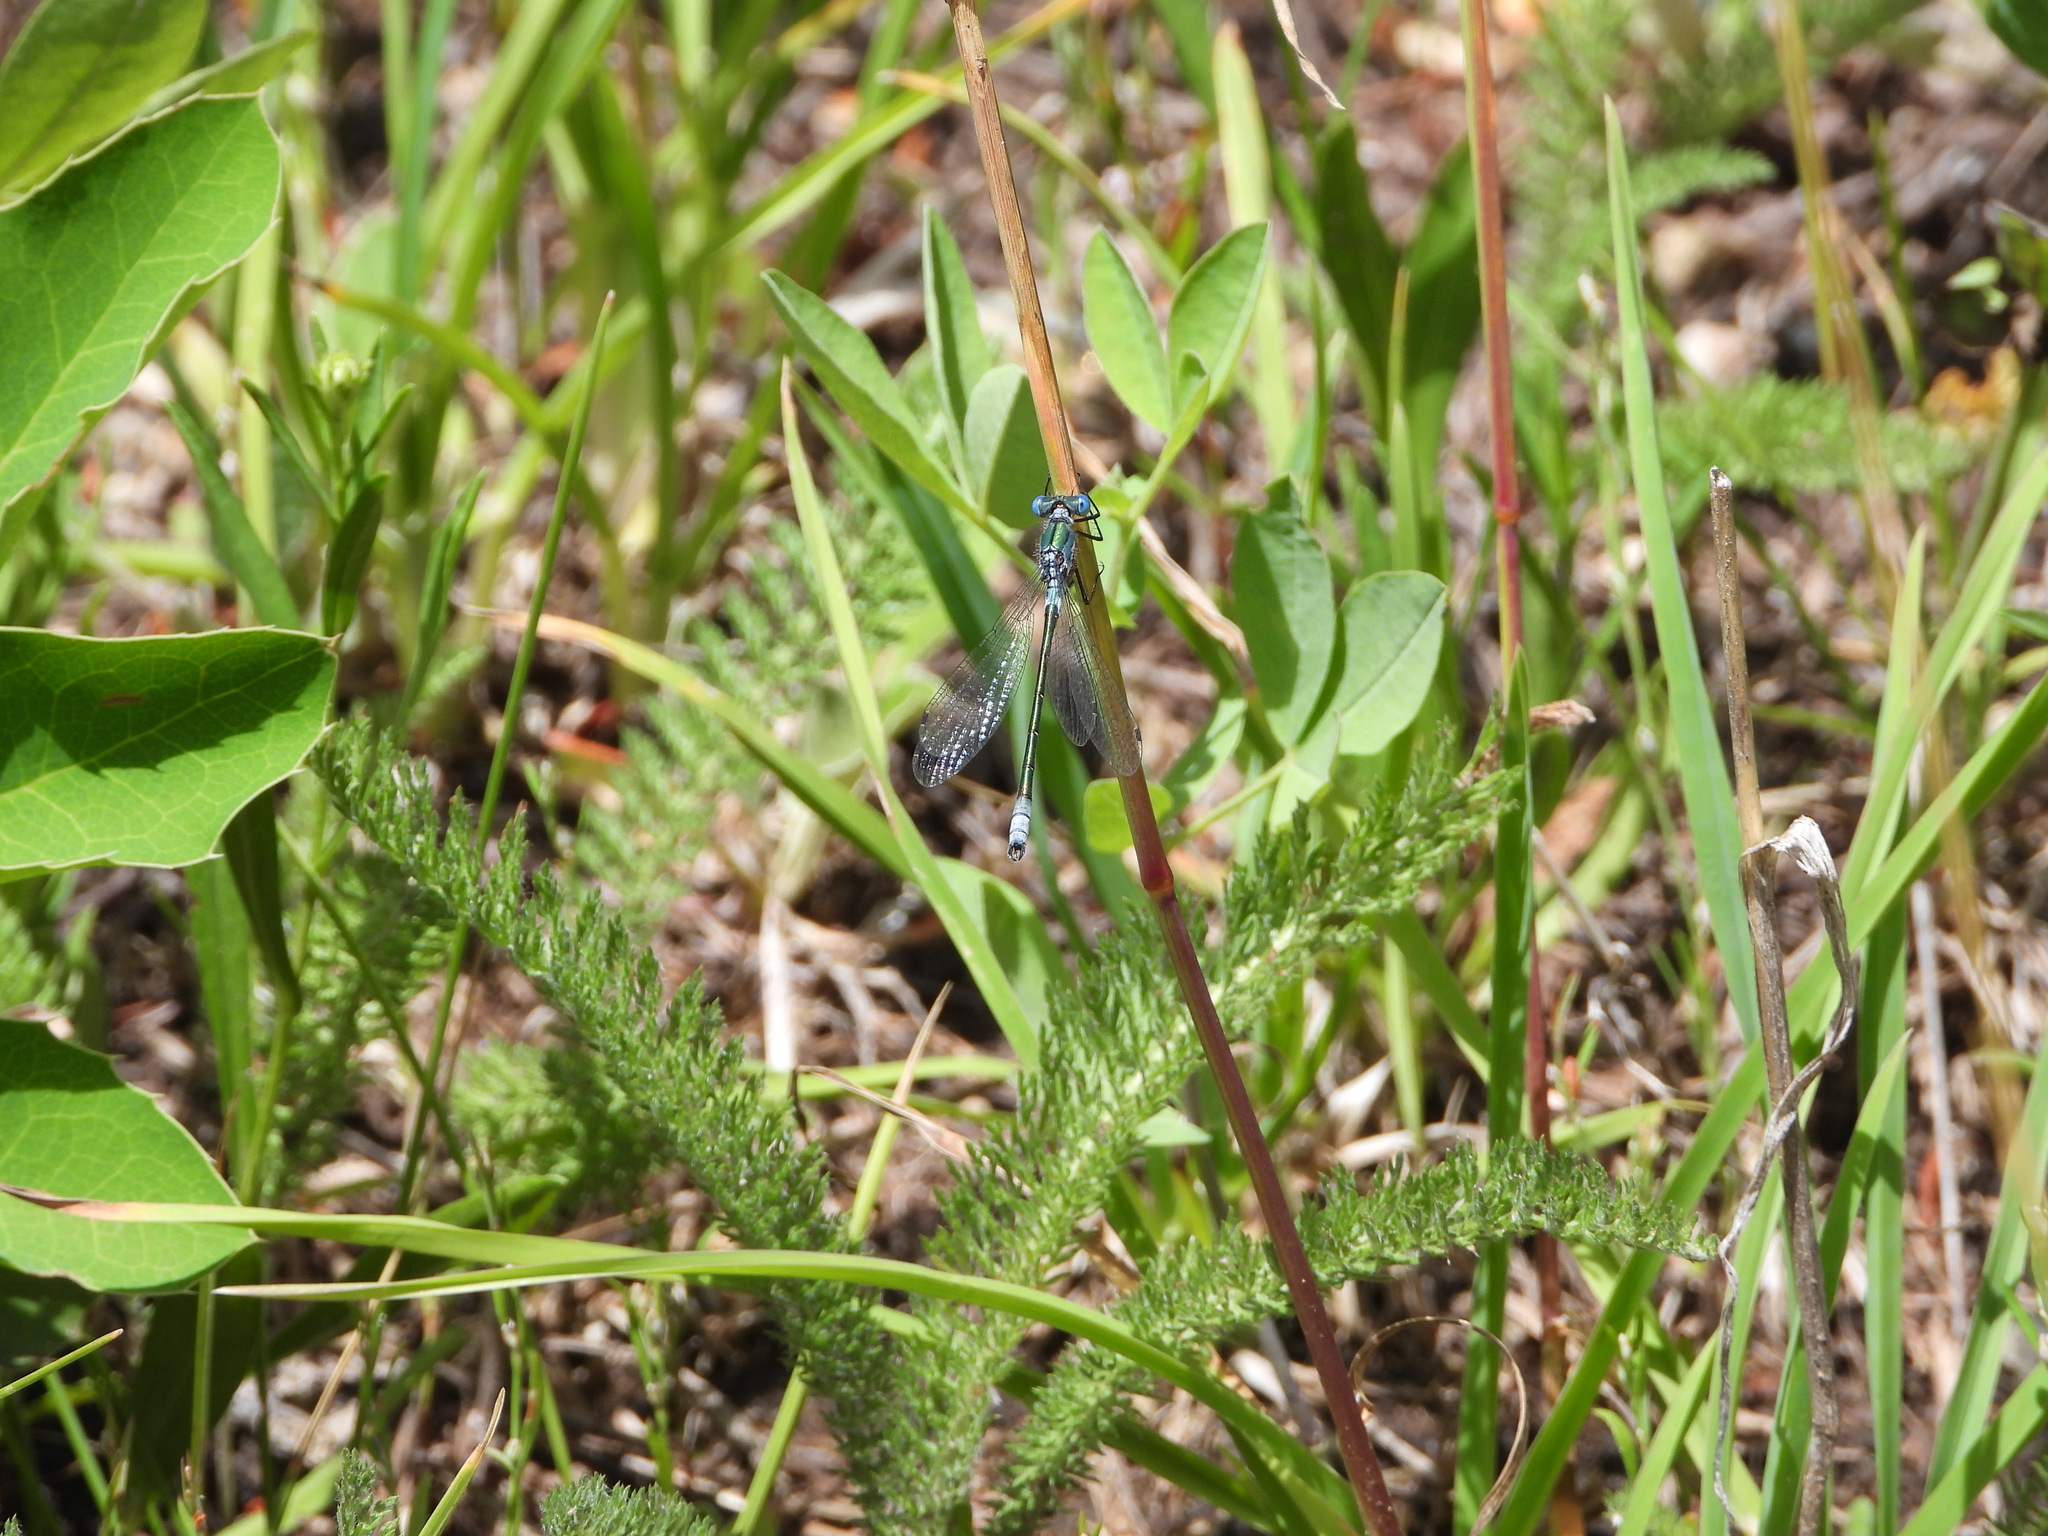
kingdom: Animalia
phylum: Arthropoda
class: Insecta
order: Odonata
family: Lestidae
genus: Lestes
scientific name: Lestes dryas
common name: Scarce emerald damselfly
